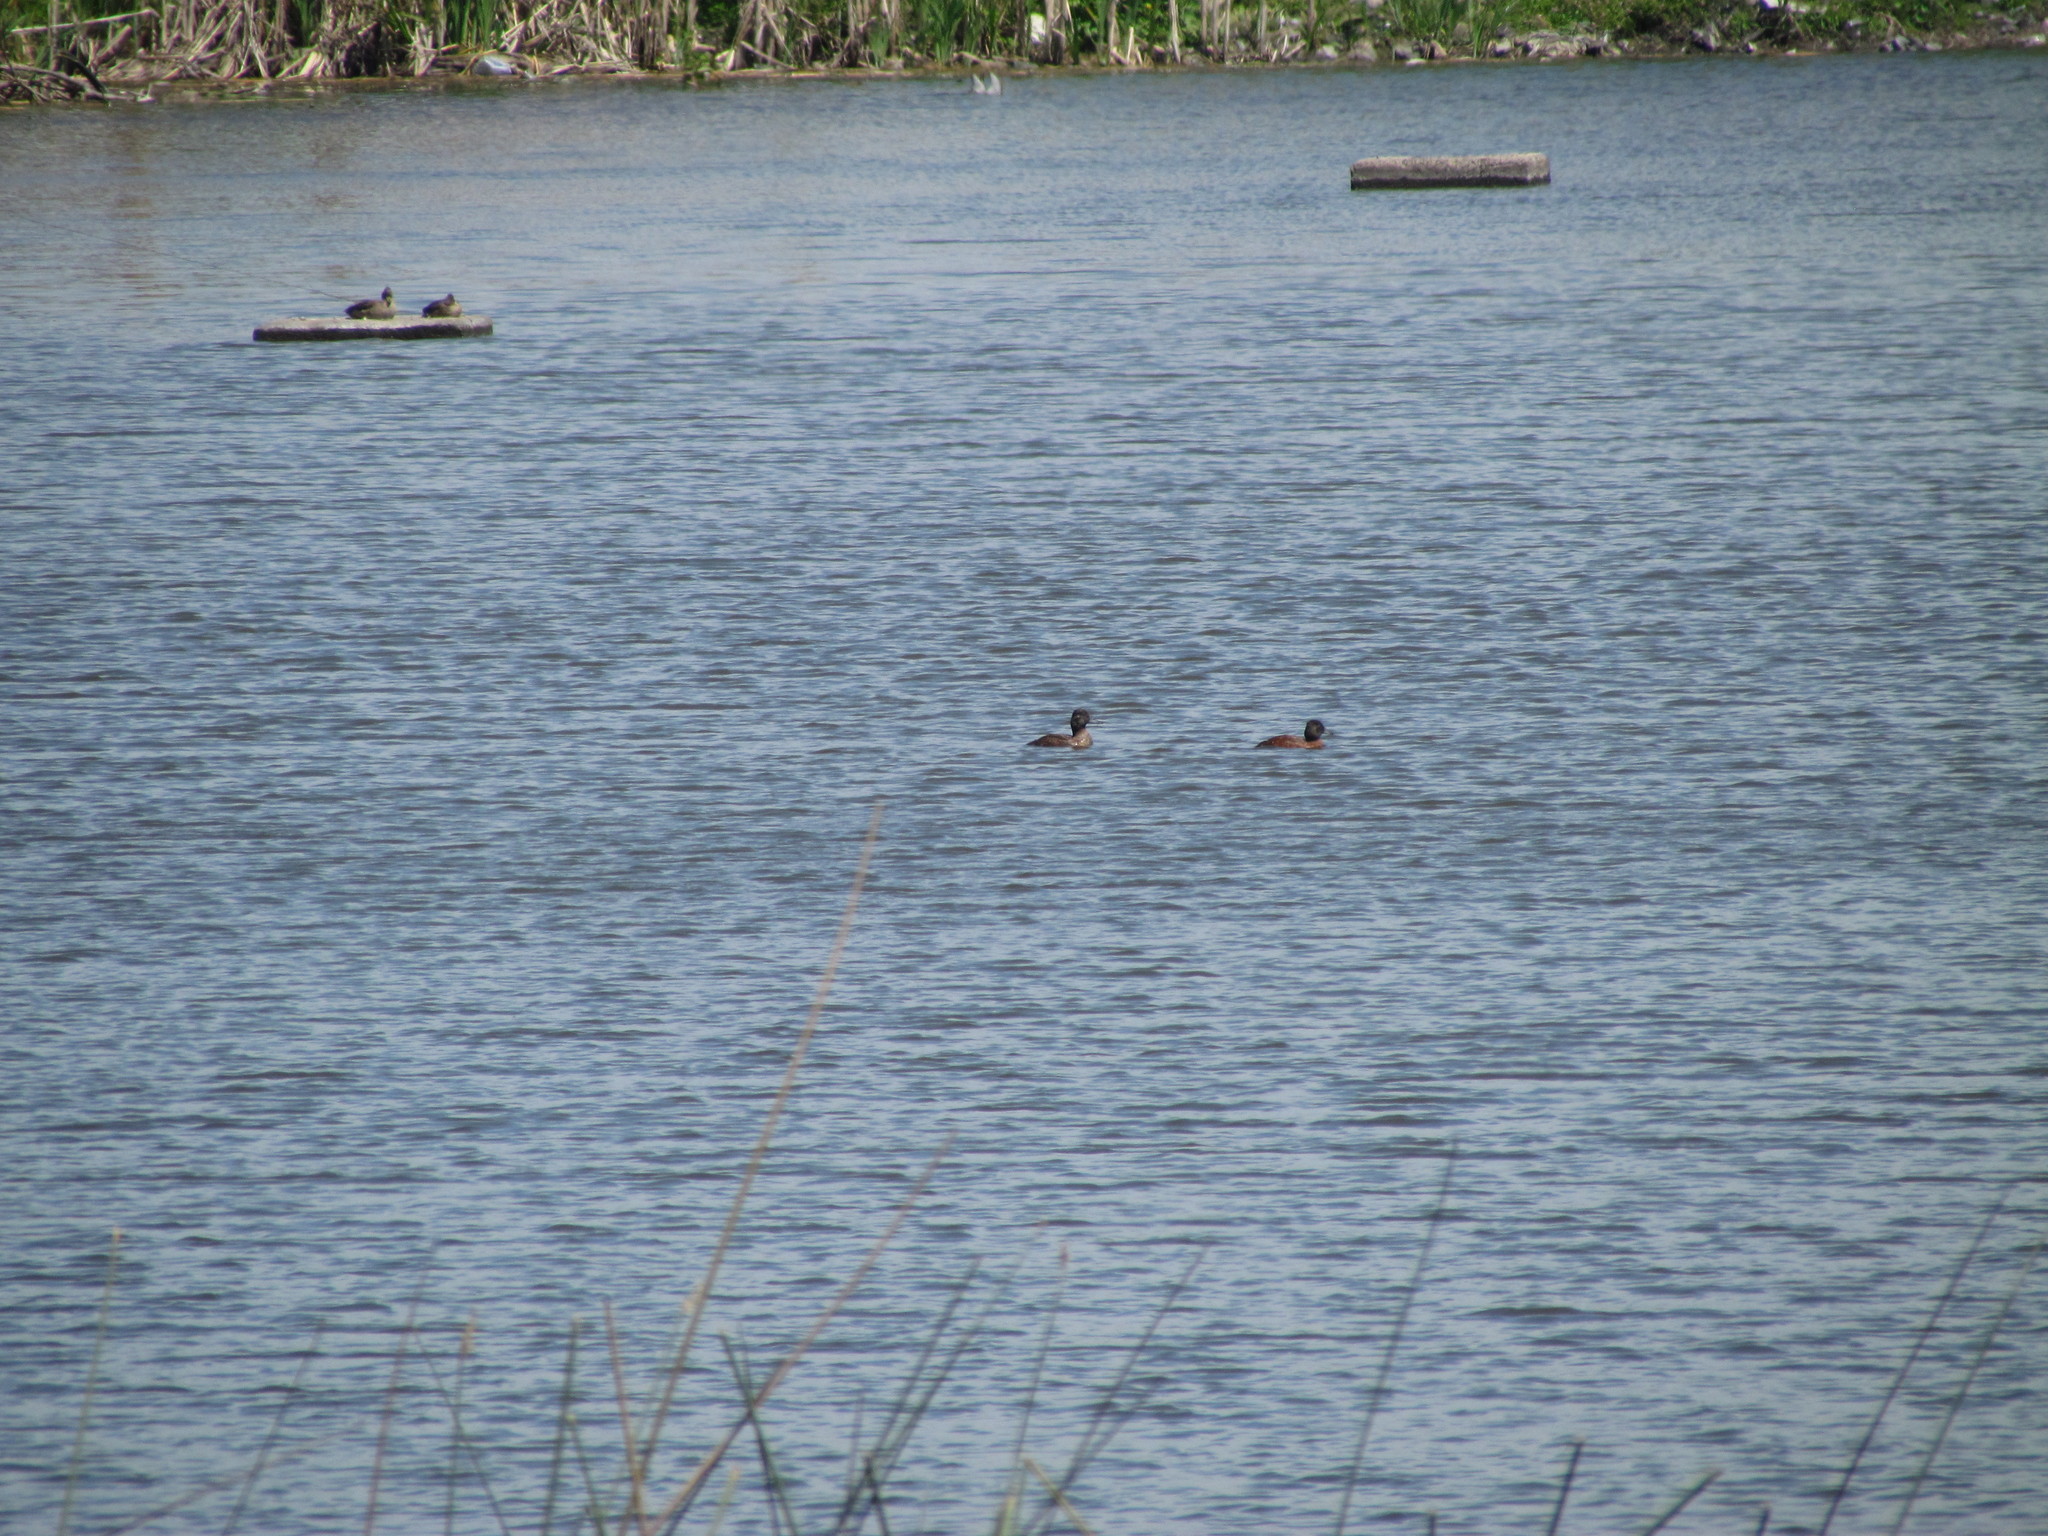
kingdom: Animalia
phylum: Chordata
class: Aves
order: Anseriformes
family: Anatidae
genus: Heteronetta
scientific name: Heteronetta atricapilla
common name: Black-headed duck
